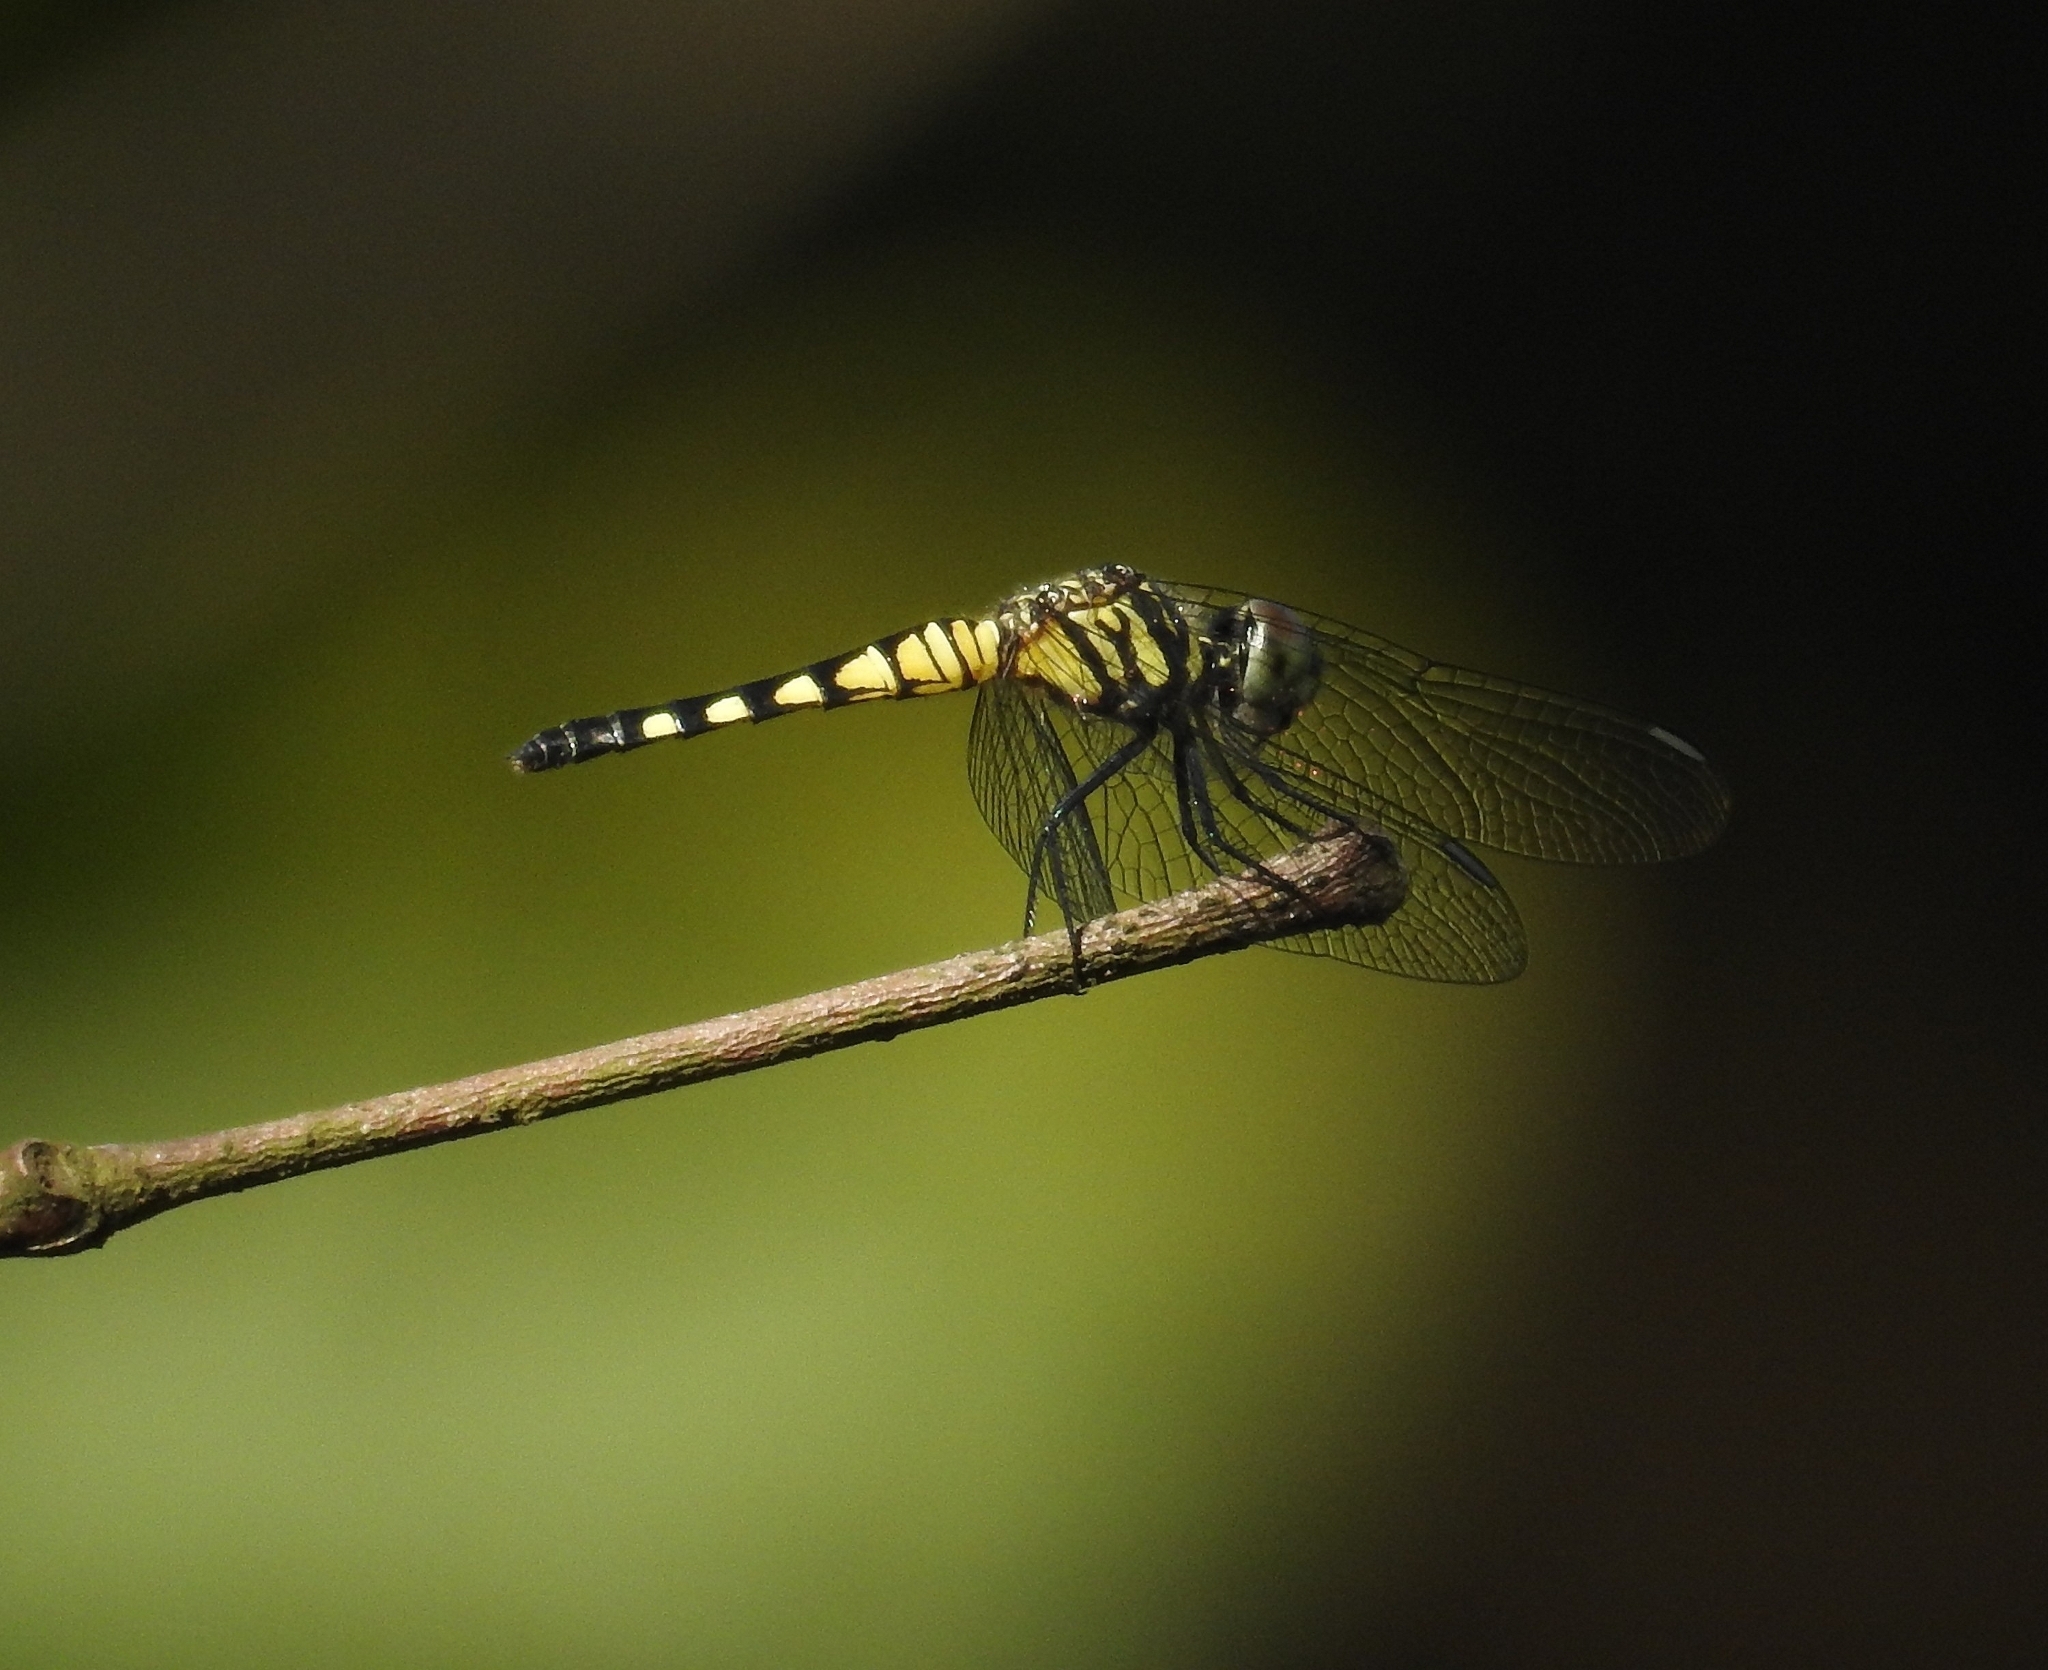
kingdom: Animalia
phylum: Arthropoda
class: Insecta
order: Odonata
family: Libellulidae
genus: Brachydiplax
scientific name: Brachydiplax sobrina
